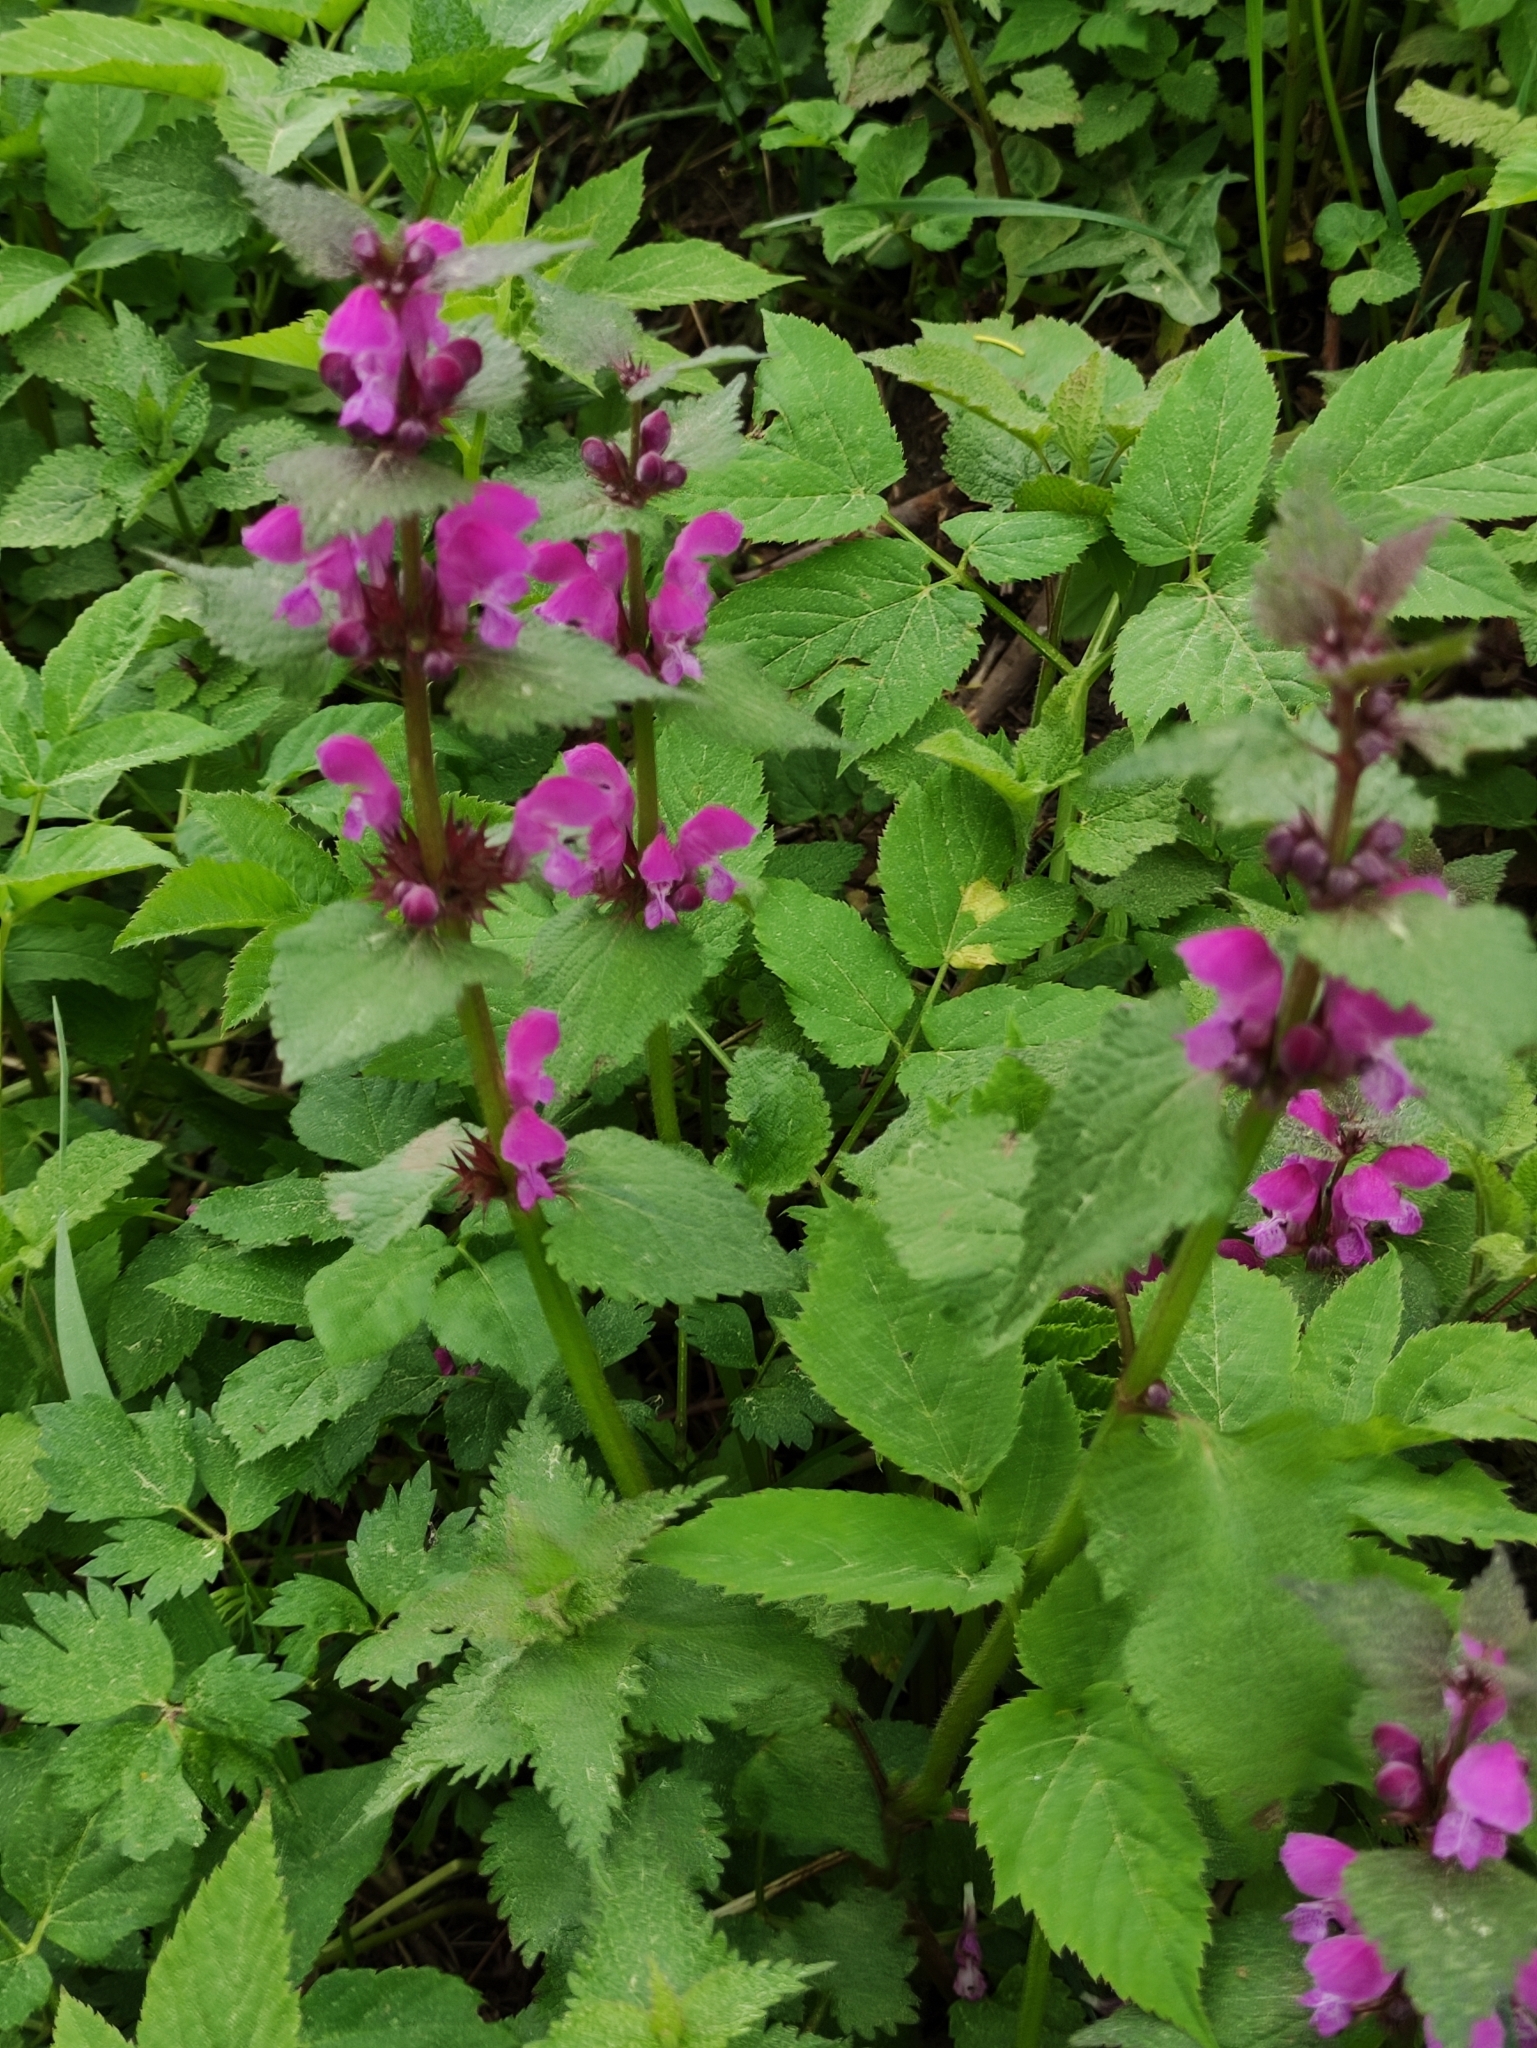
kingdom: Plantae
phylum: Tracheophyta
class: Magnoliopsida
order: Lamiales
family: Lamiaceae
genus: Lamium
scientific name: Lamium maculatum
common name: Spotted dead-nettle
